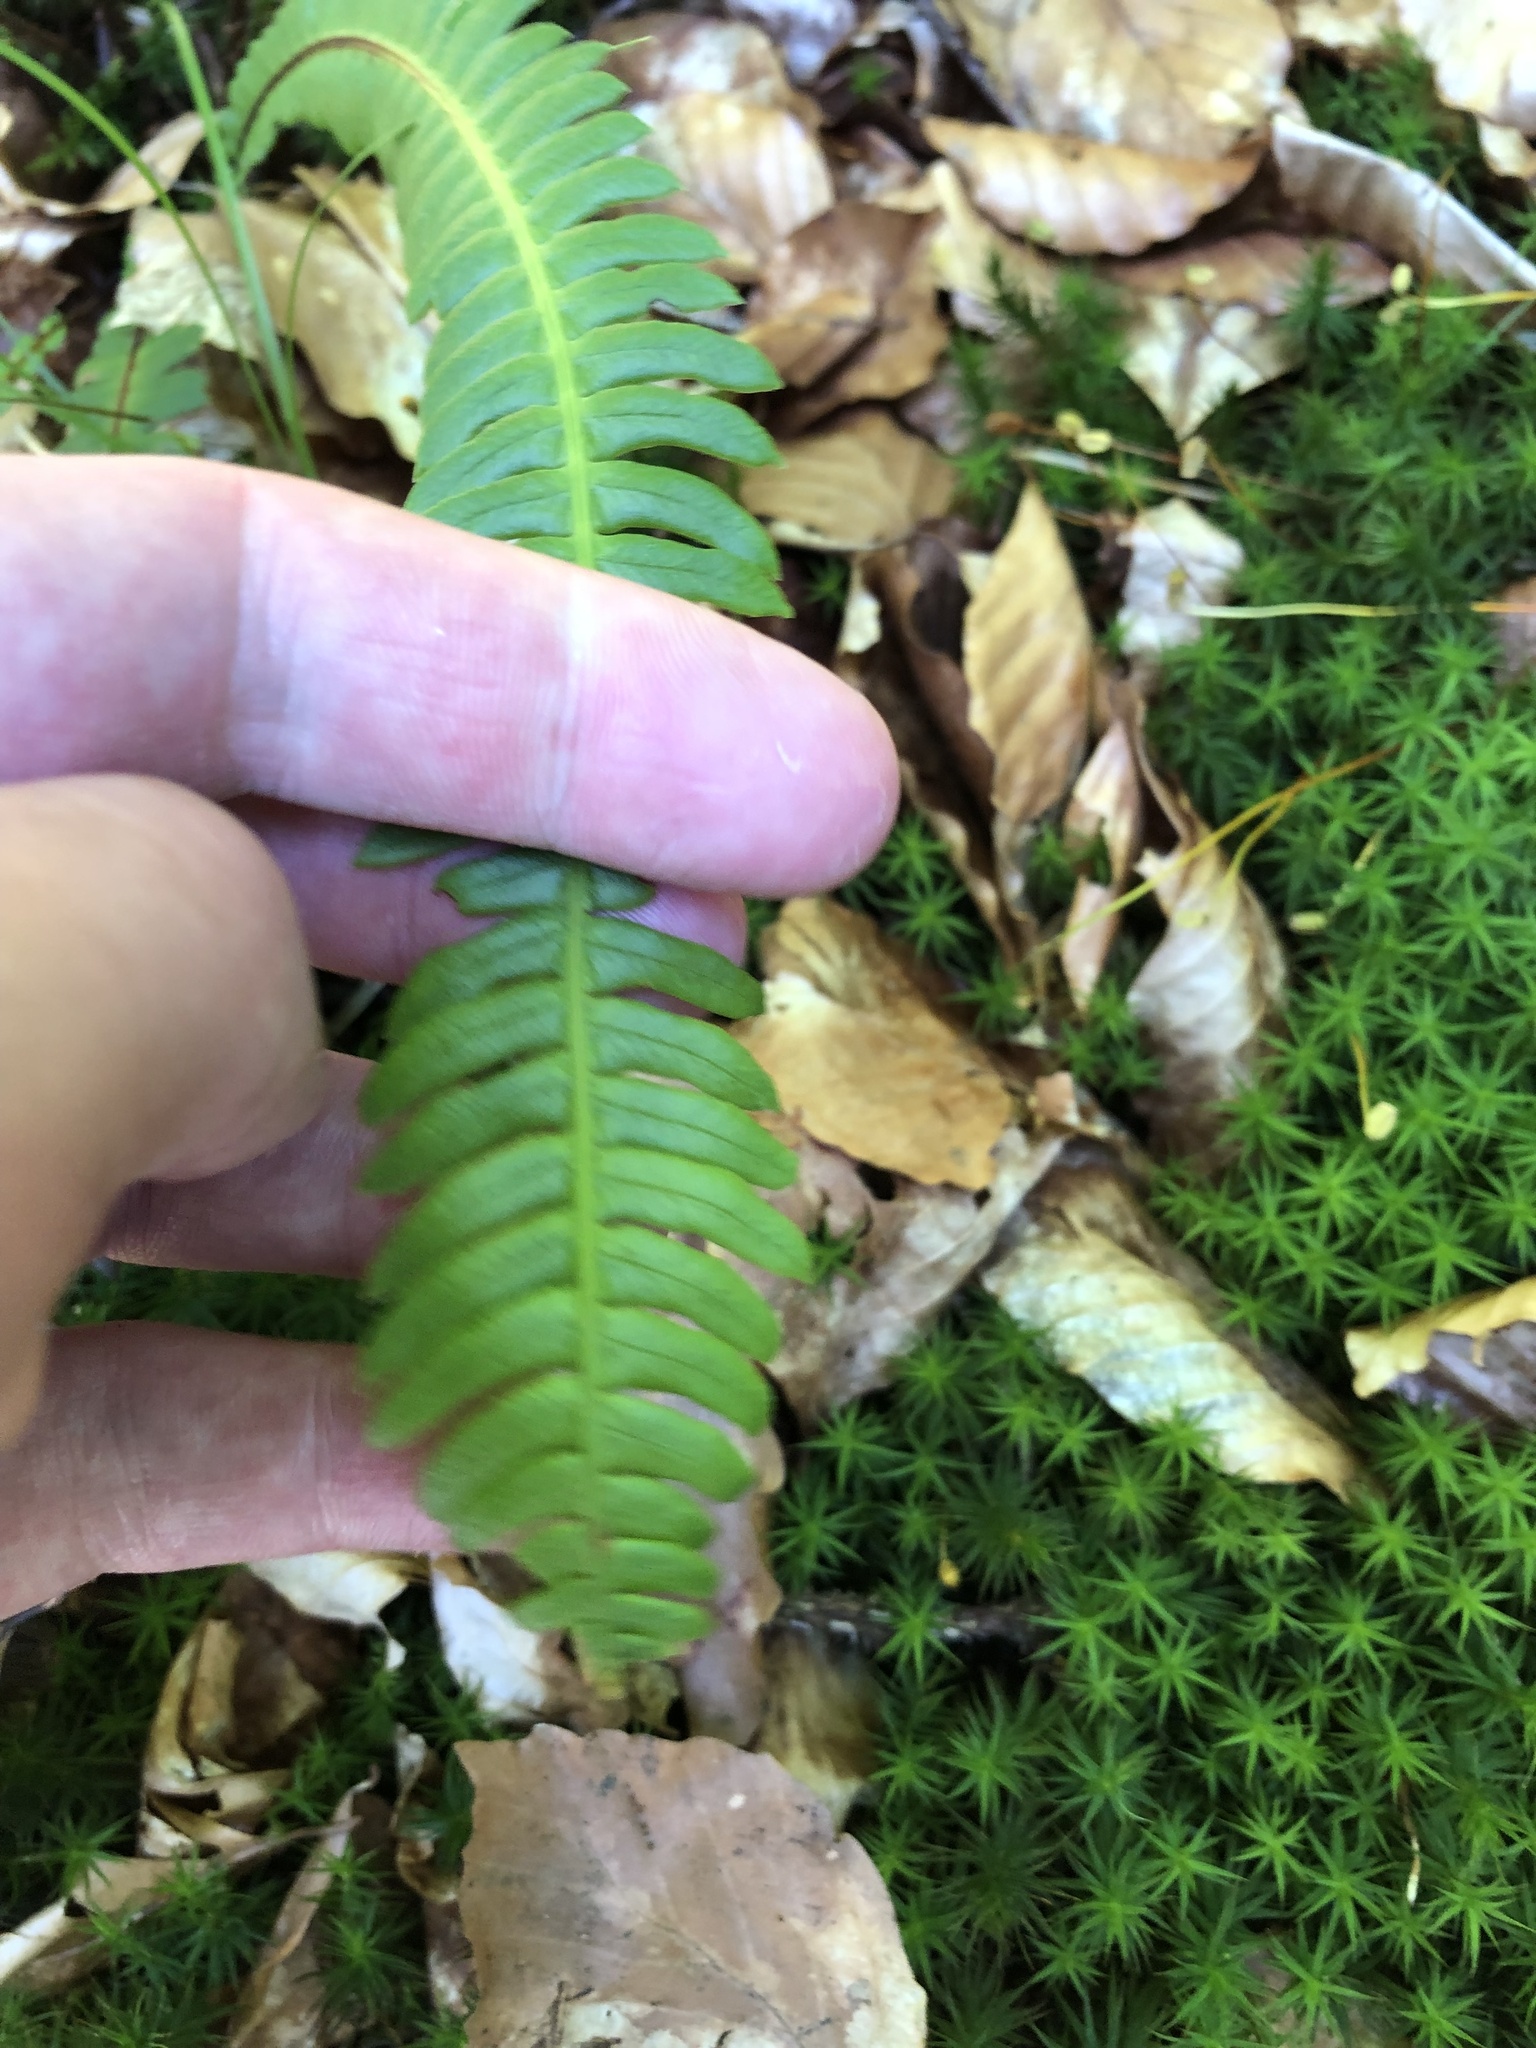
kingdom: Plantae
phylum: Tracheophyta
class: Polypodiopsida
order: Polypodiales
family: Blechnaceae
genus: Struthiopteris
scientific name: Struthiopteris spicant
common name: Deer fern
